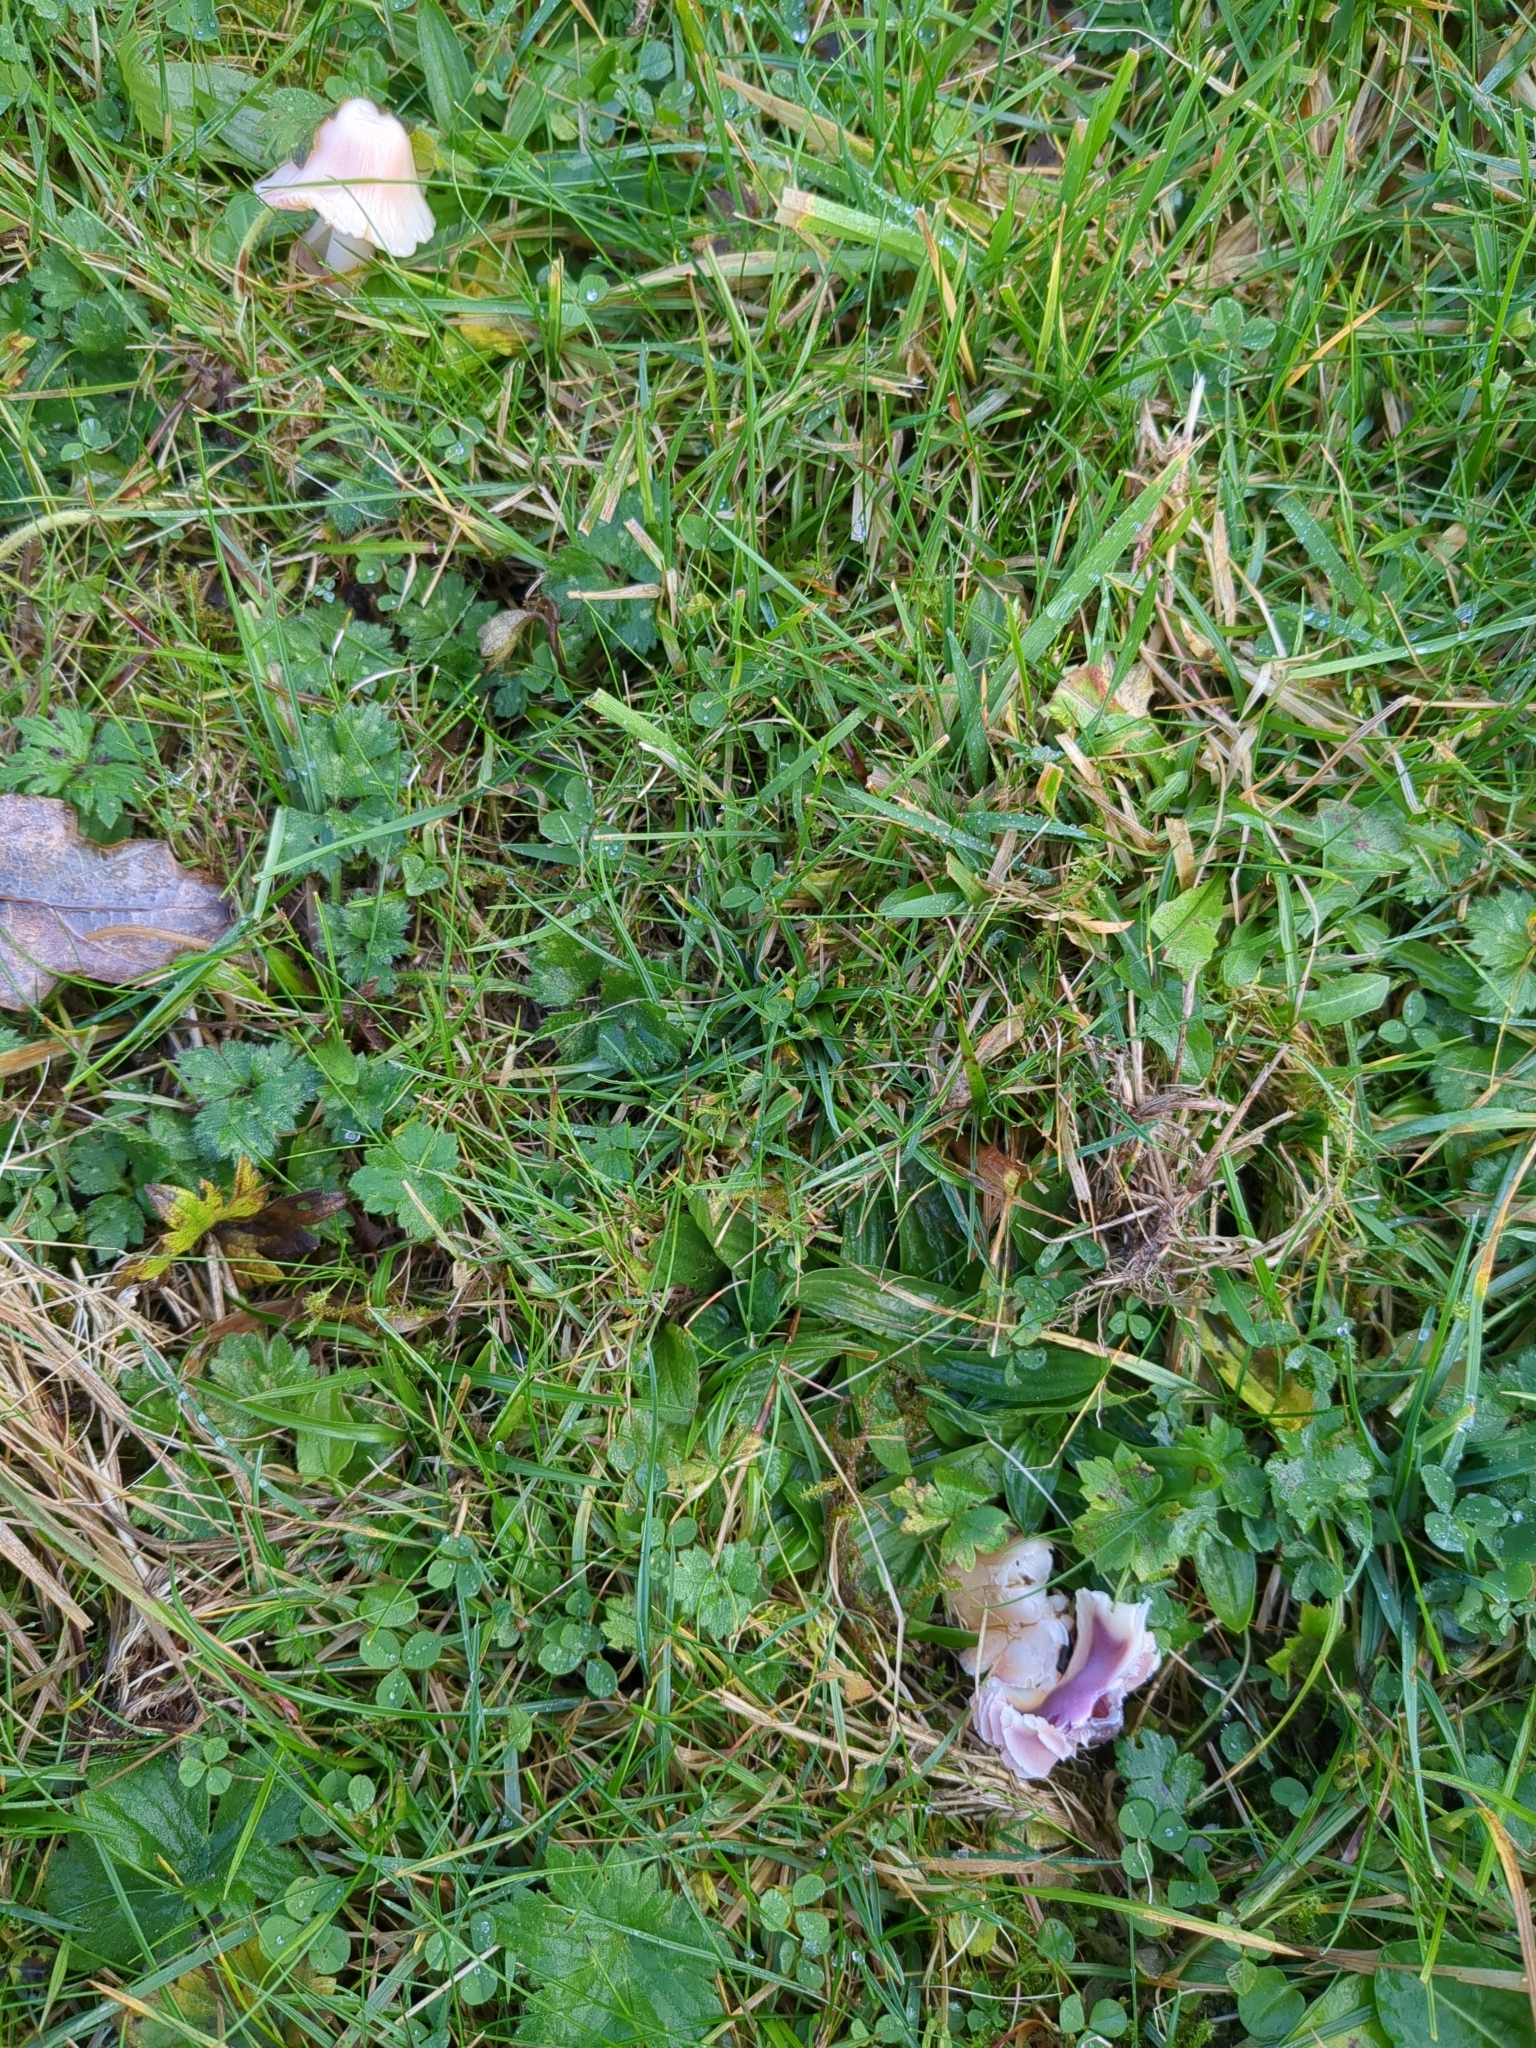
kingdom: Fungi
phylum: Basidiomycota
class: Agaricomycetes
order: Agaricales
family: Hygrophoraceae
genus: Gliophorus
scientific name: Gliophorus reginae
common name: Jubilee waxcap
